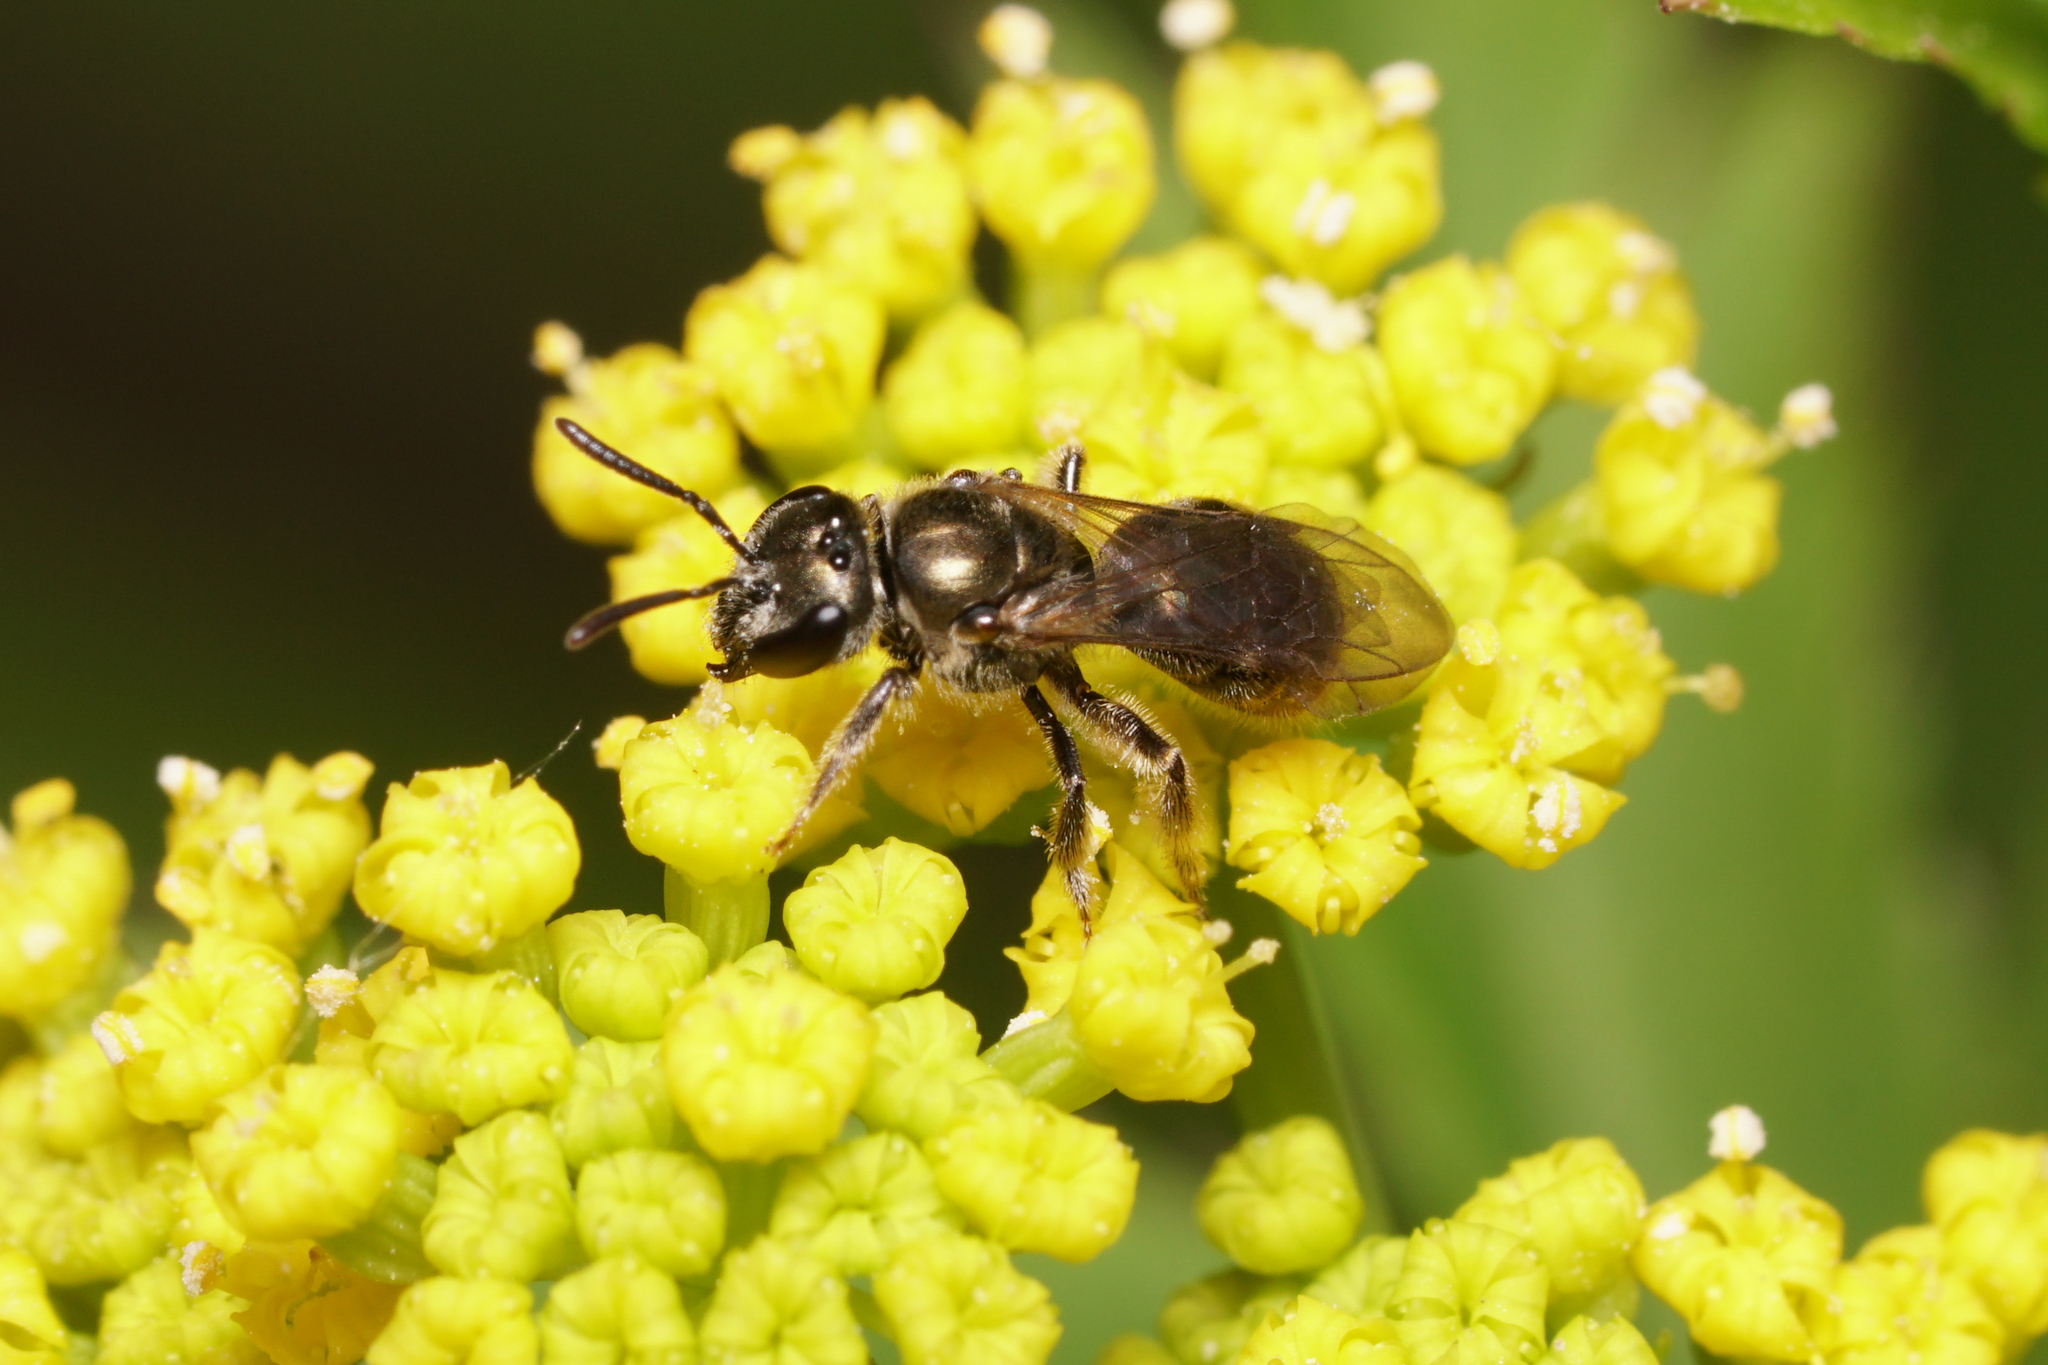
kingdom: Animalia
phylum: Arthropoda
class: Insecta
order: Hymenoptera
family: Halictidae
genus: Dialictus
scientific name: Dialictus
